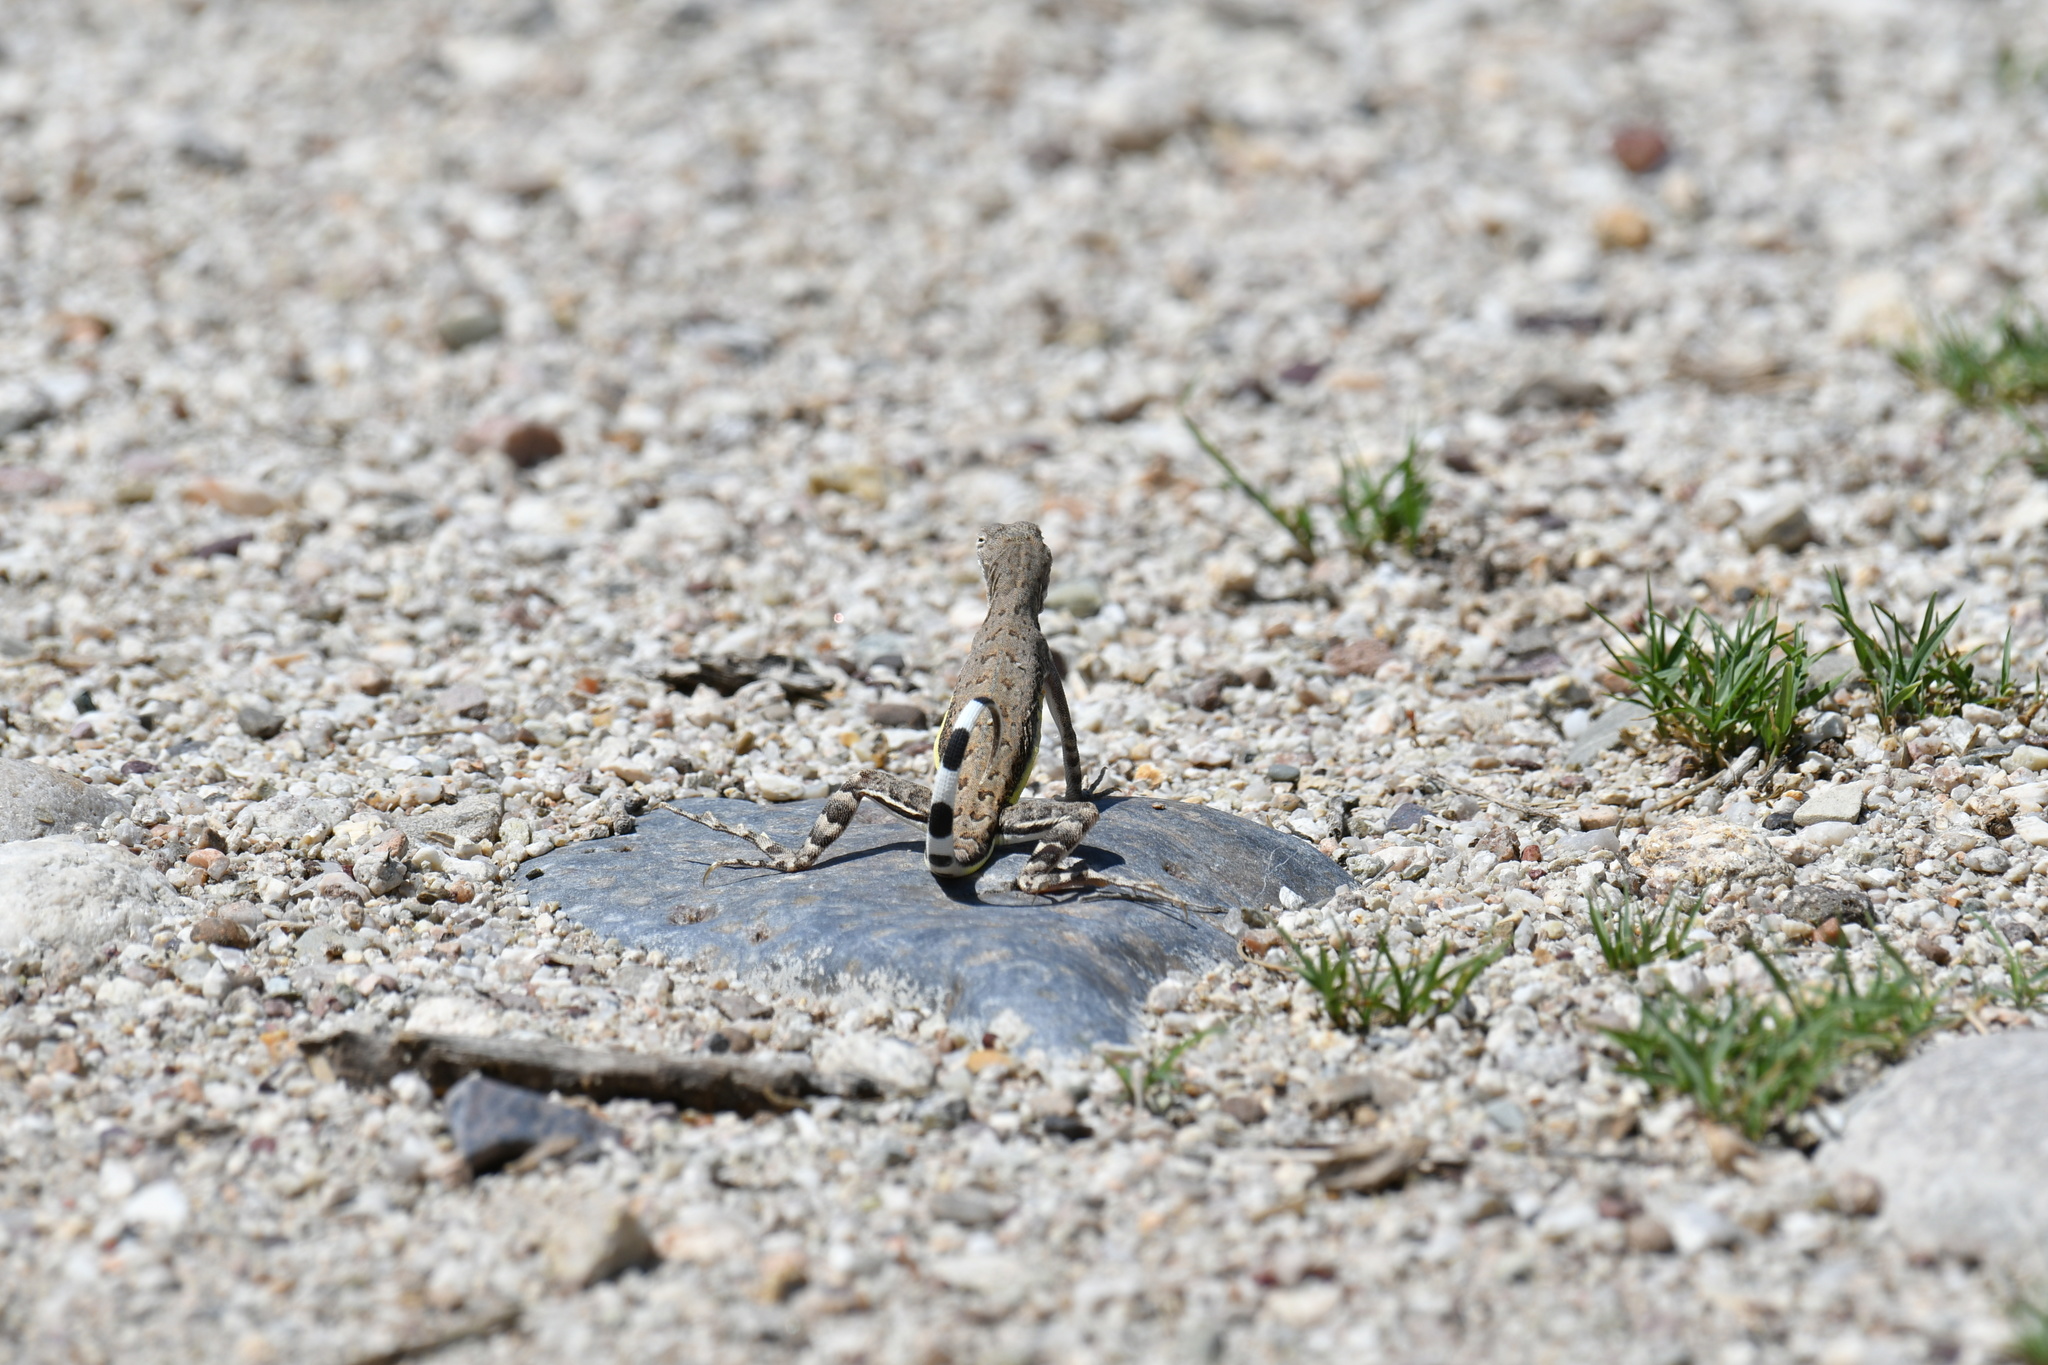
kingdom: Animalia
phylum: Chordata
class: Squamata
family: Phrynosomatidae
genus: Callisaurus
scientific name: Callisaurus draconoides
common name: Zebra-tailed lizard
